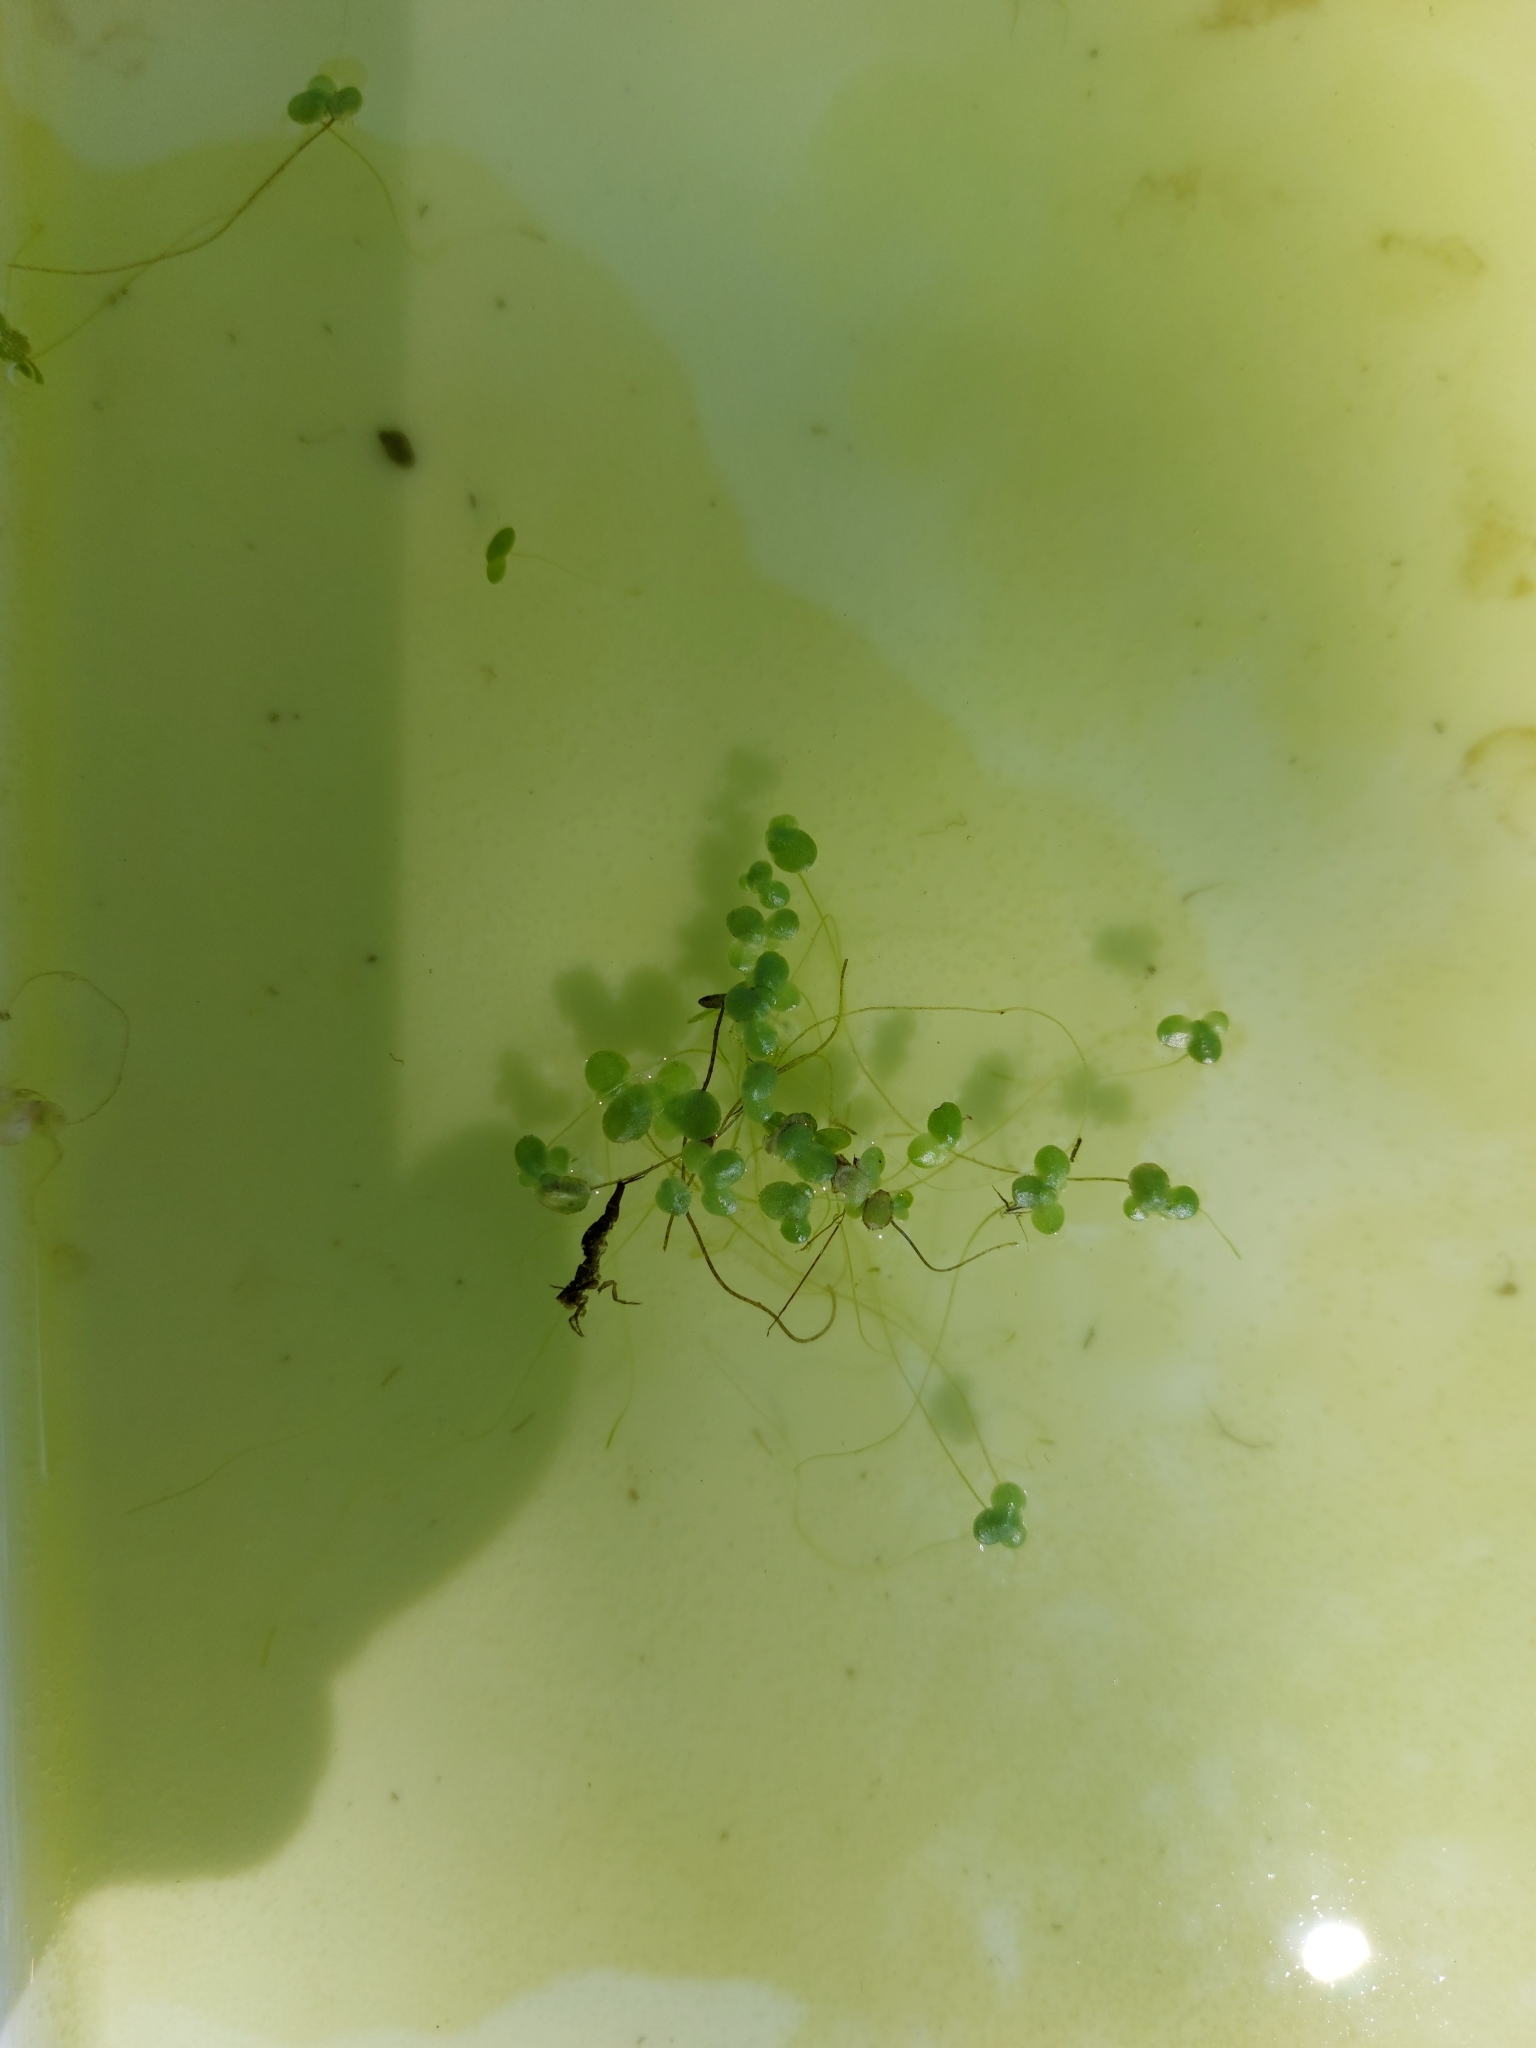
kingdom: Plantae
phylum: Tracheophyta
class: Liliopsida
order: Alismatales
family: Araceae
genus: Lemna
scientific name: Lemna minor
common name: Common duckweed
